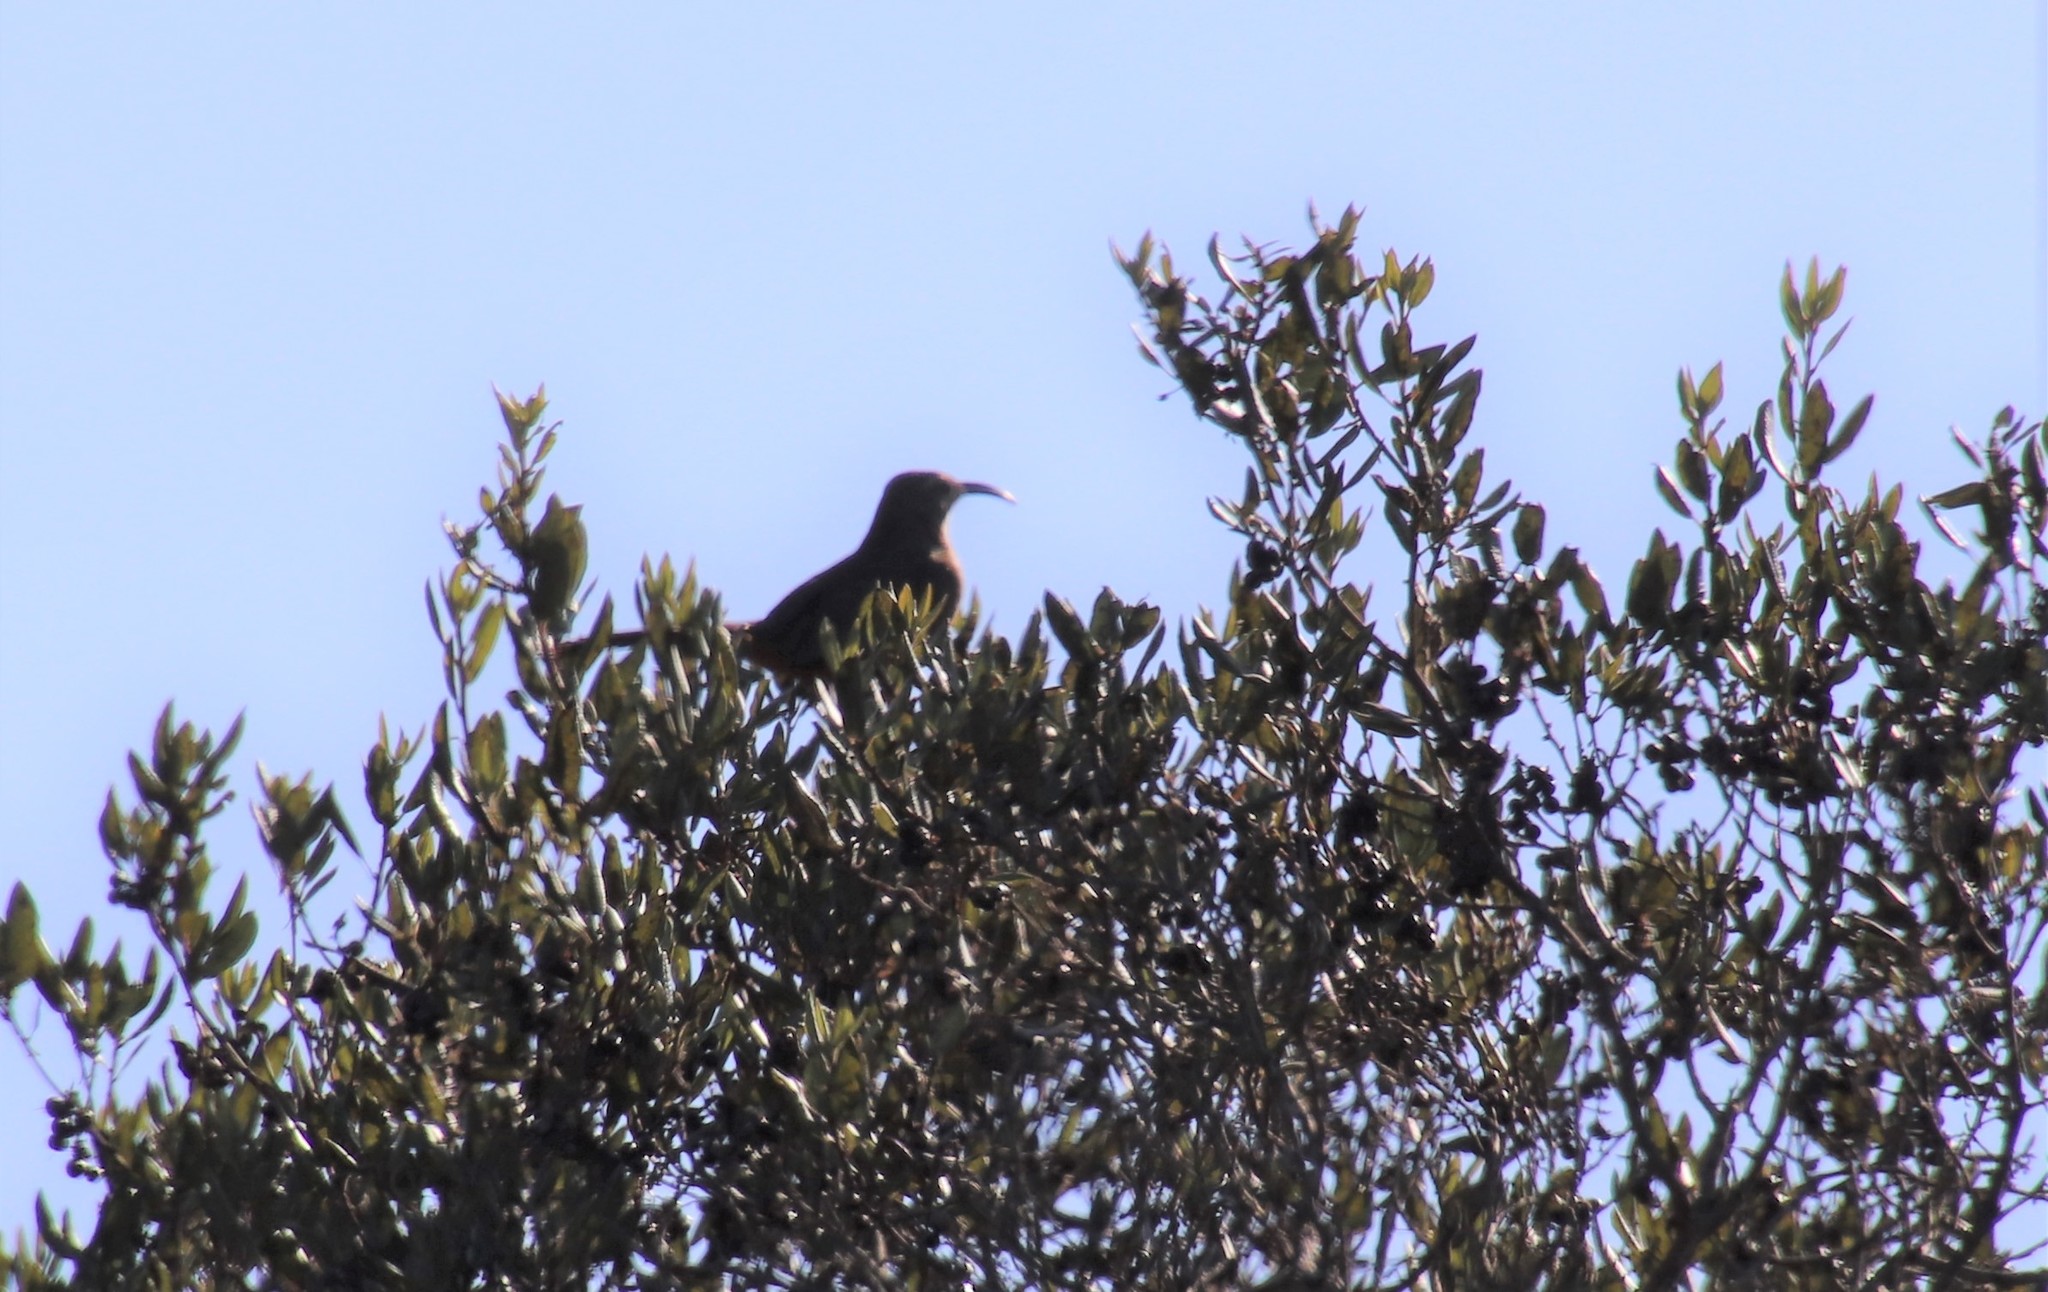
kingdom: Animalia
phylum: Chordata
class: Aves
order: Passeriformes
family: Mimidae
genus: Toxostoma
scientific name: Toxostoma redivivum
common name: California thrasher
